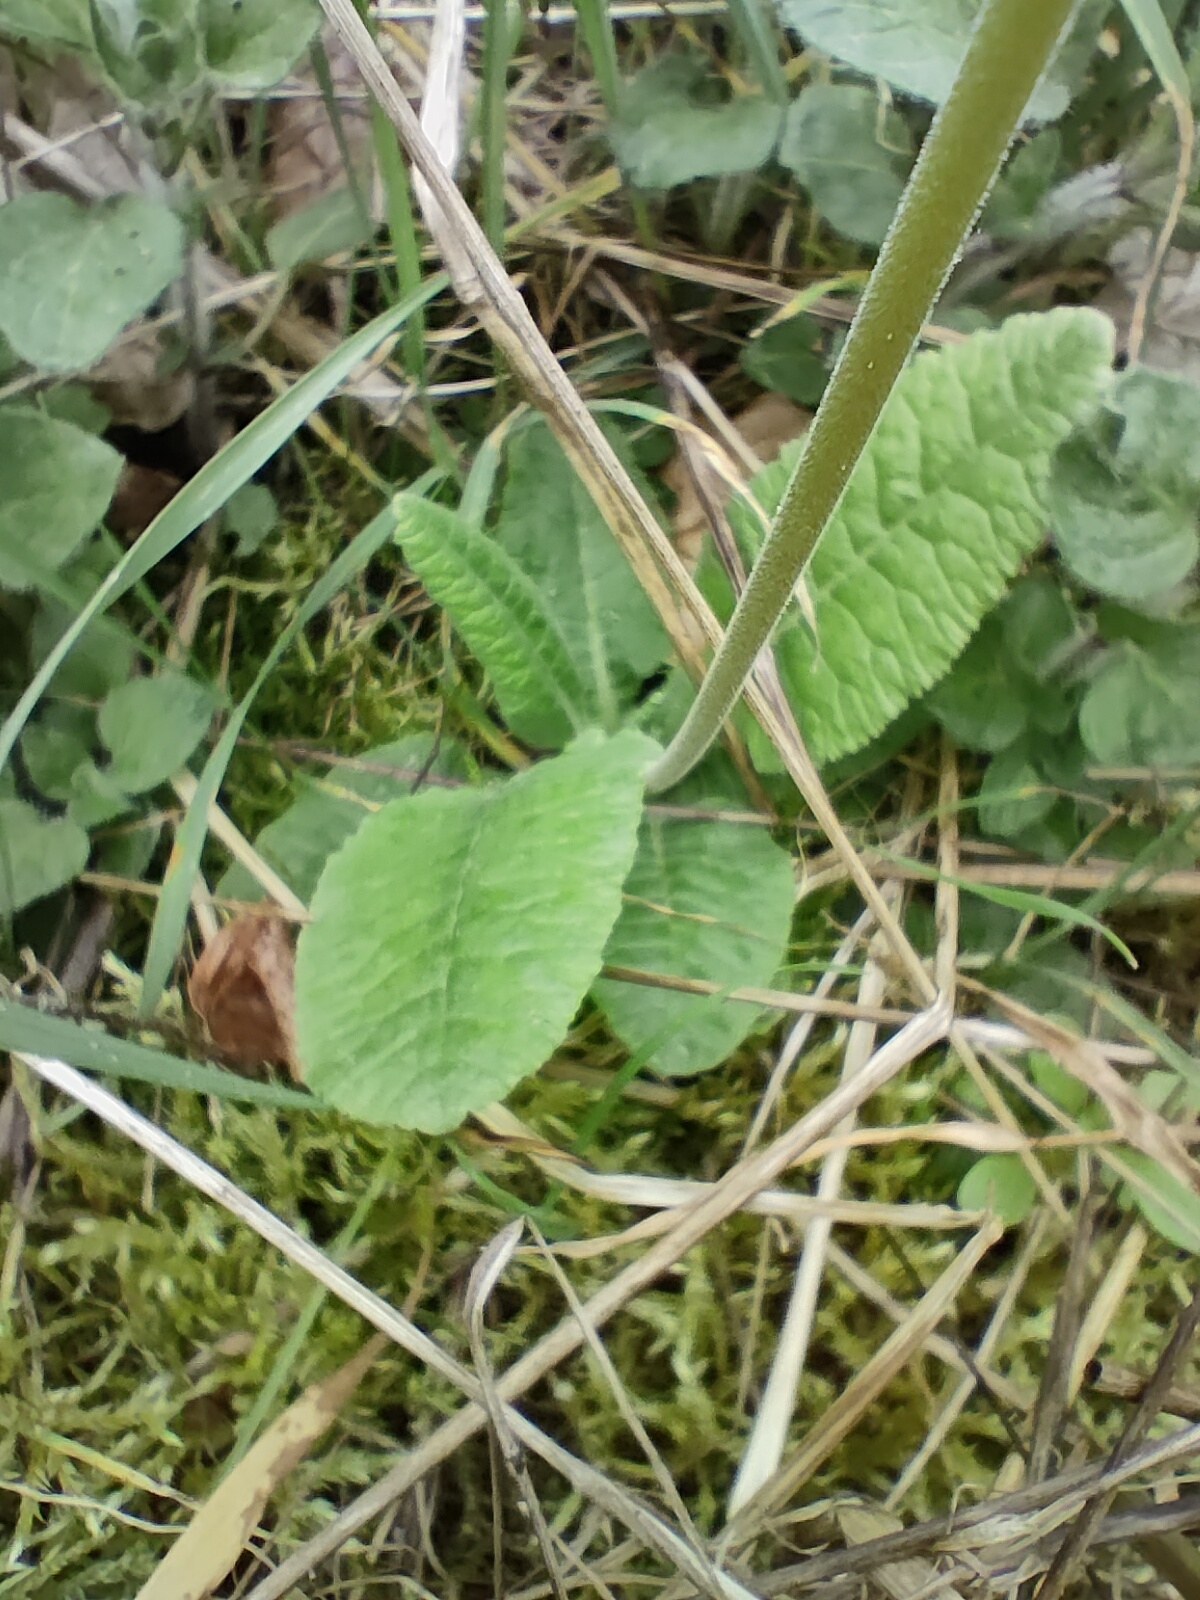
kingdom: Plantae
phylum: Tracheophyta
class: Magnoliopsida
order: Ericales
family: Primulaceae
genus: Primula
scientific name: Primula veris
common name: Cowslip
